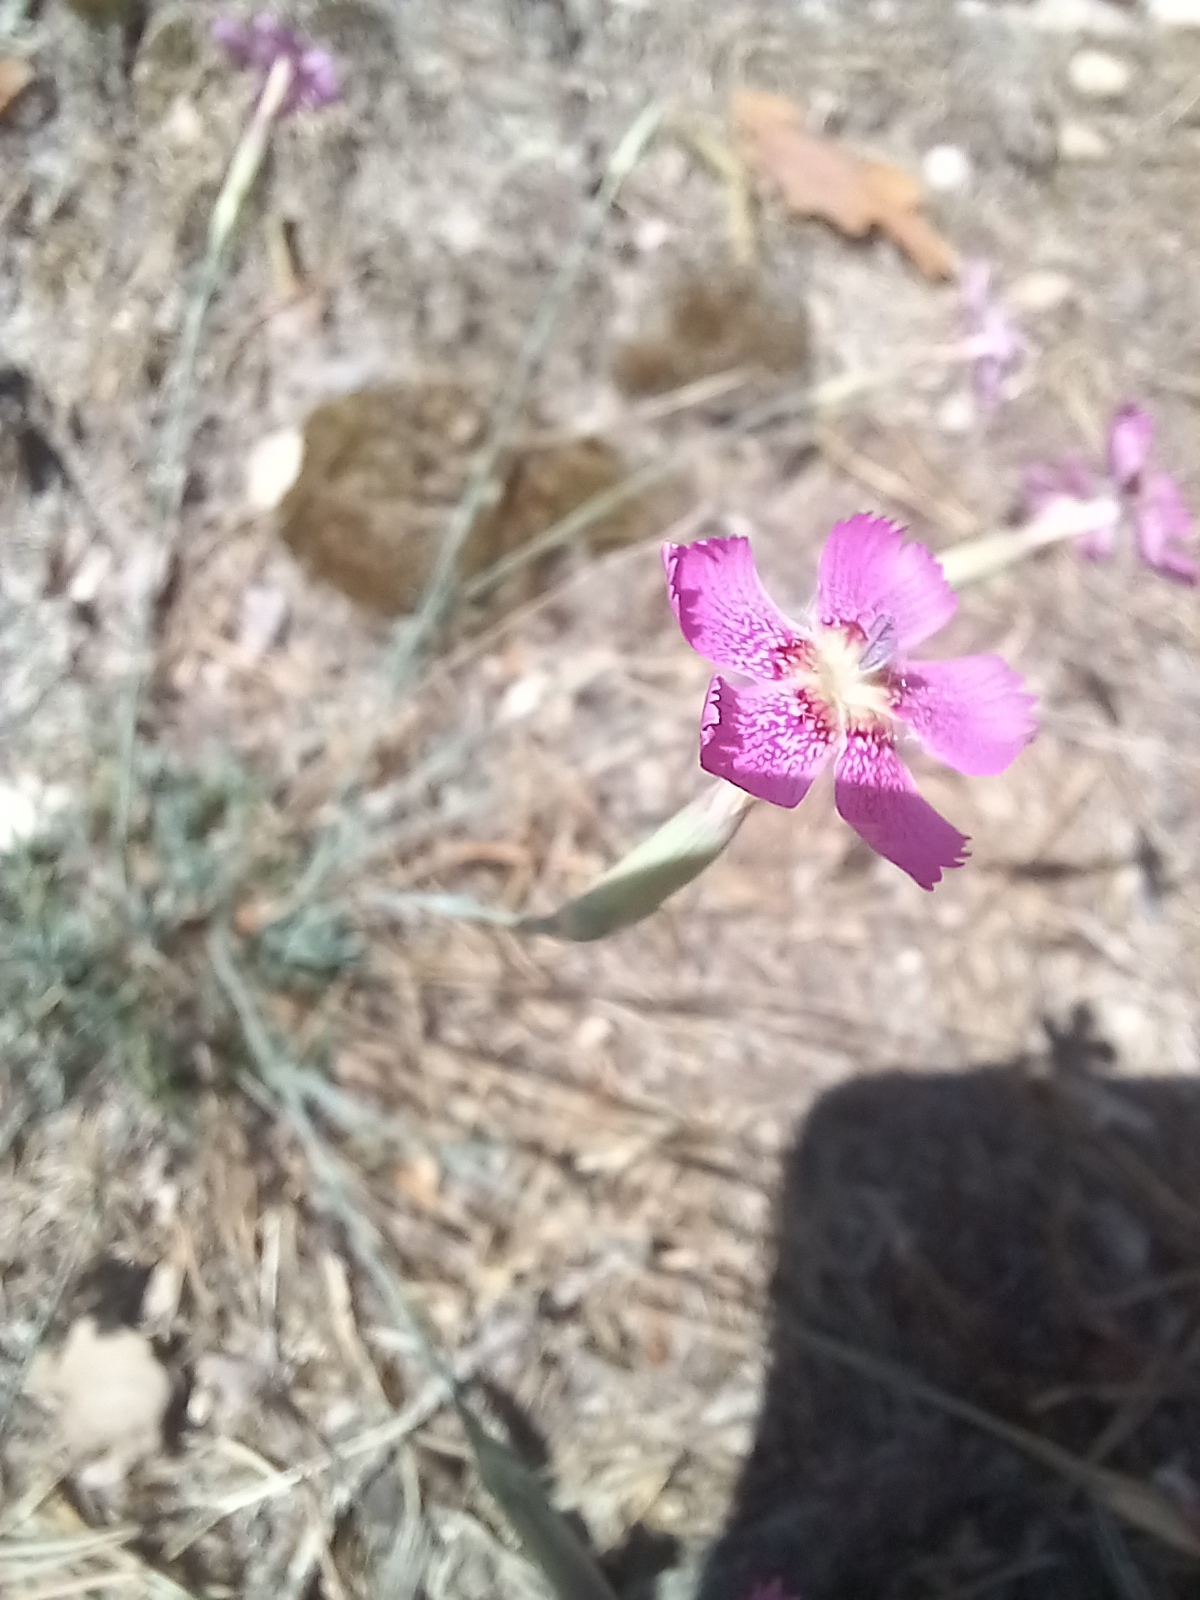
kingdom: Plantae
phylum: Tracheophyta
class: Magnoliopsida
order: Caryophyllales
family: Caryophyllaceae
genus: Dianthus
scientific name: Dianthus lusitanus
